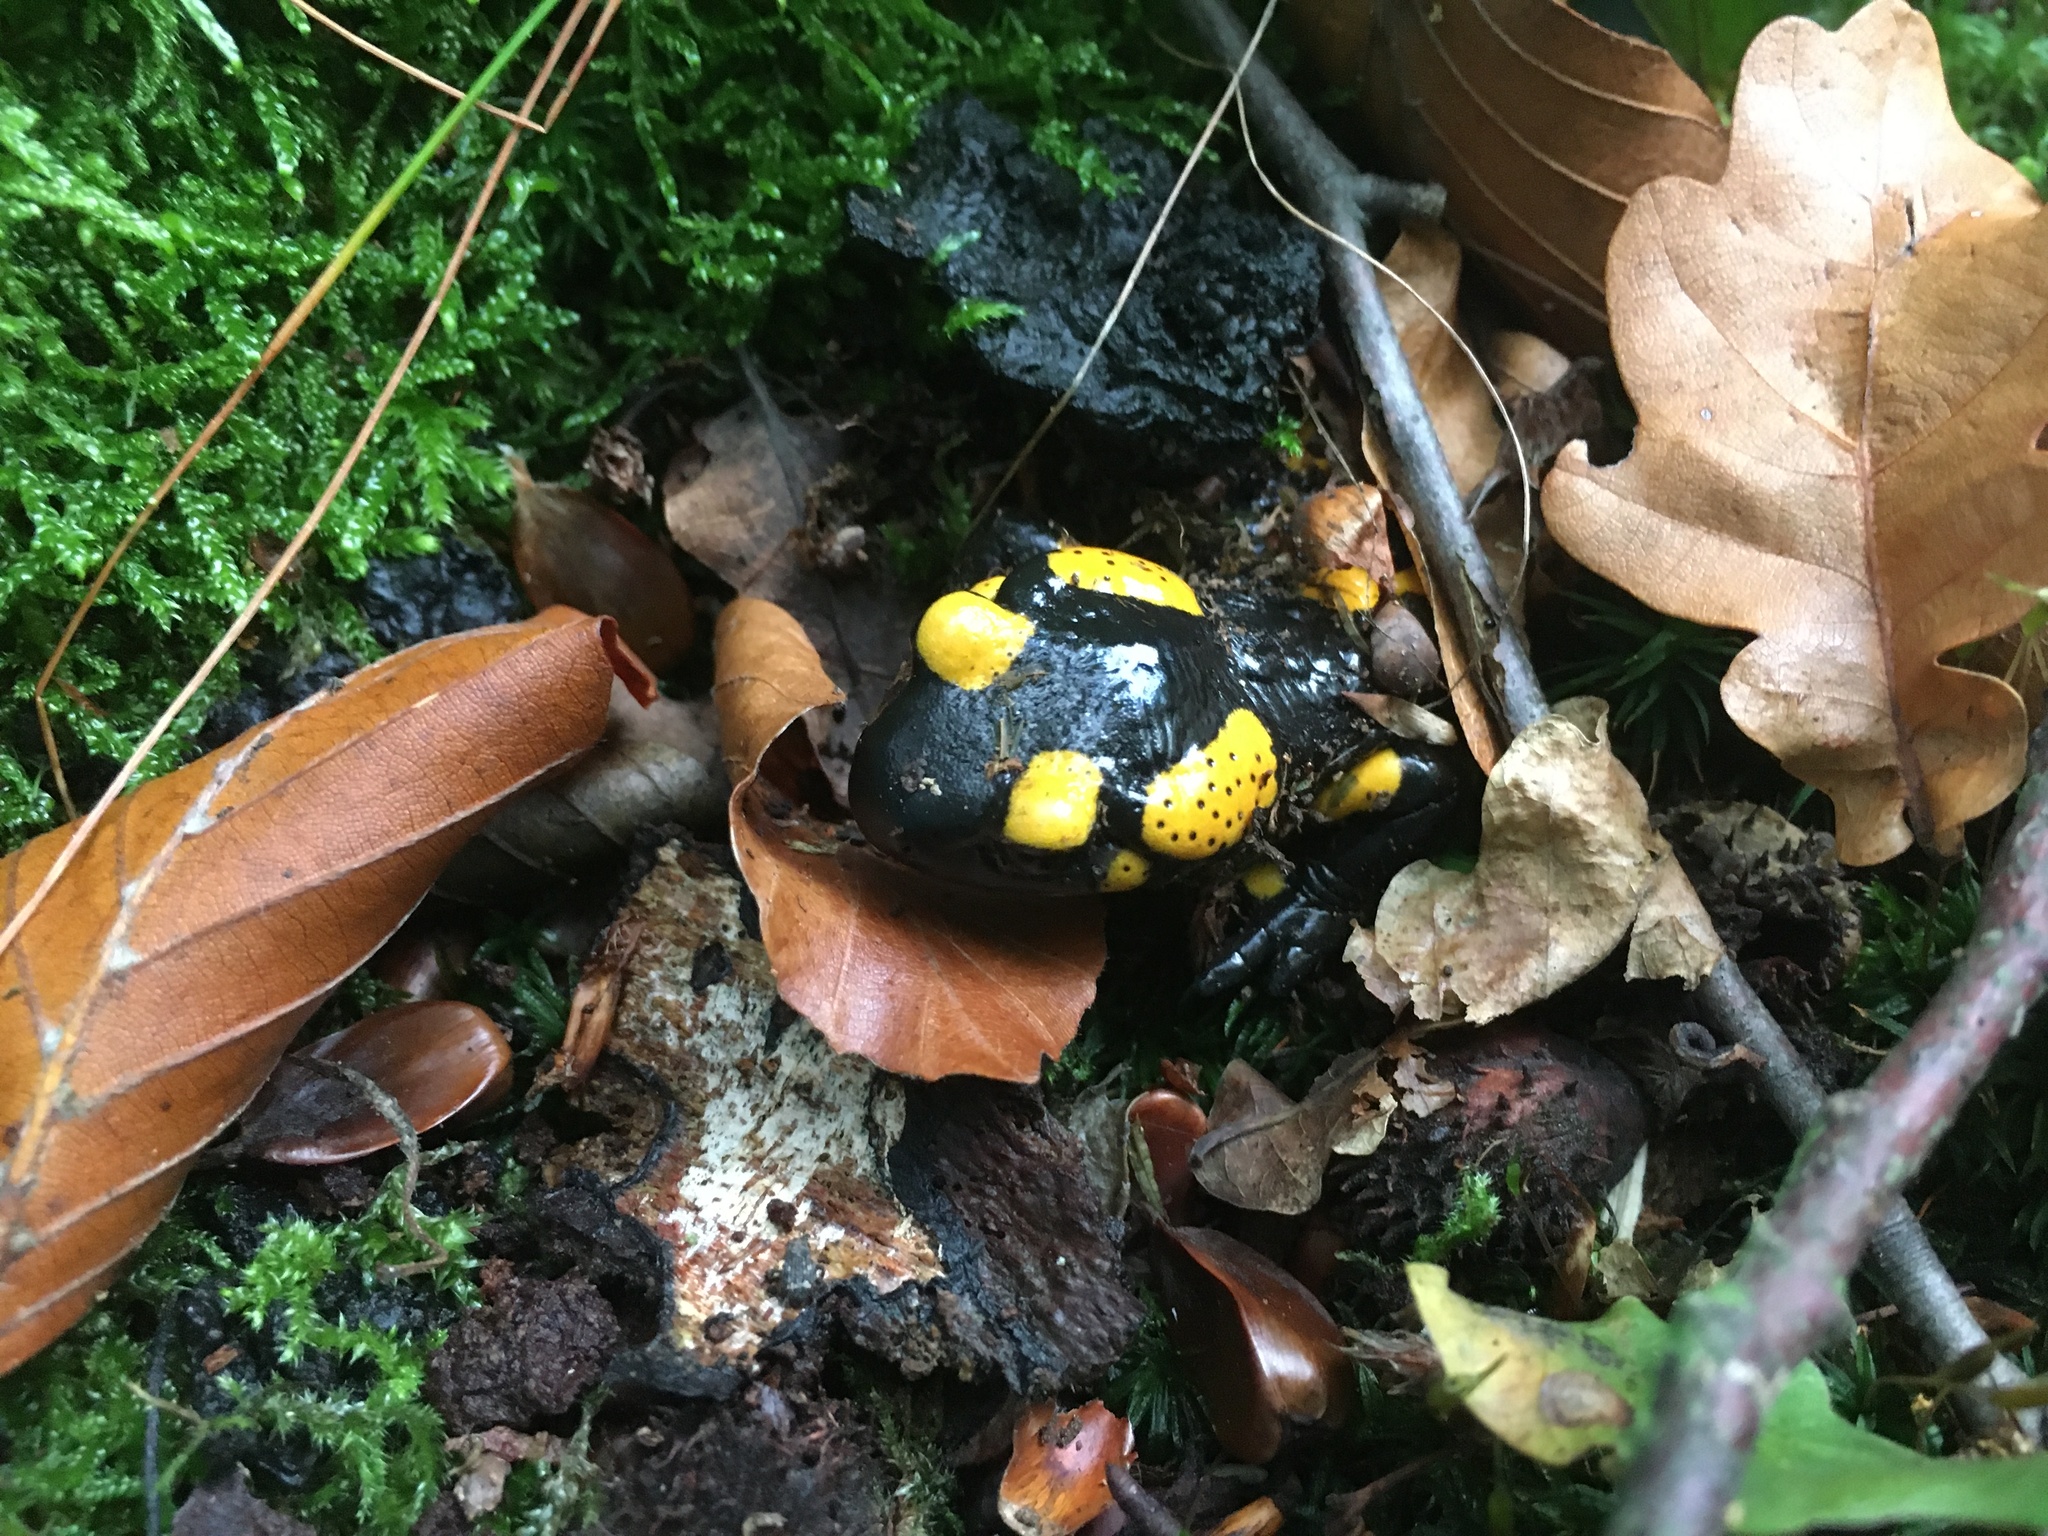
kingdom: Animalia
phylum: Chordata
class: Amphibia
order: Caudata
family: Salamandridae
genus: Salamandra
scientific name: Salamandra salamandra
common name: Fire salamander
